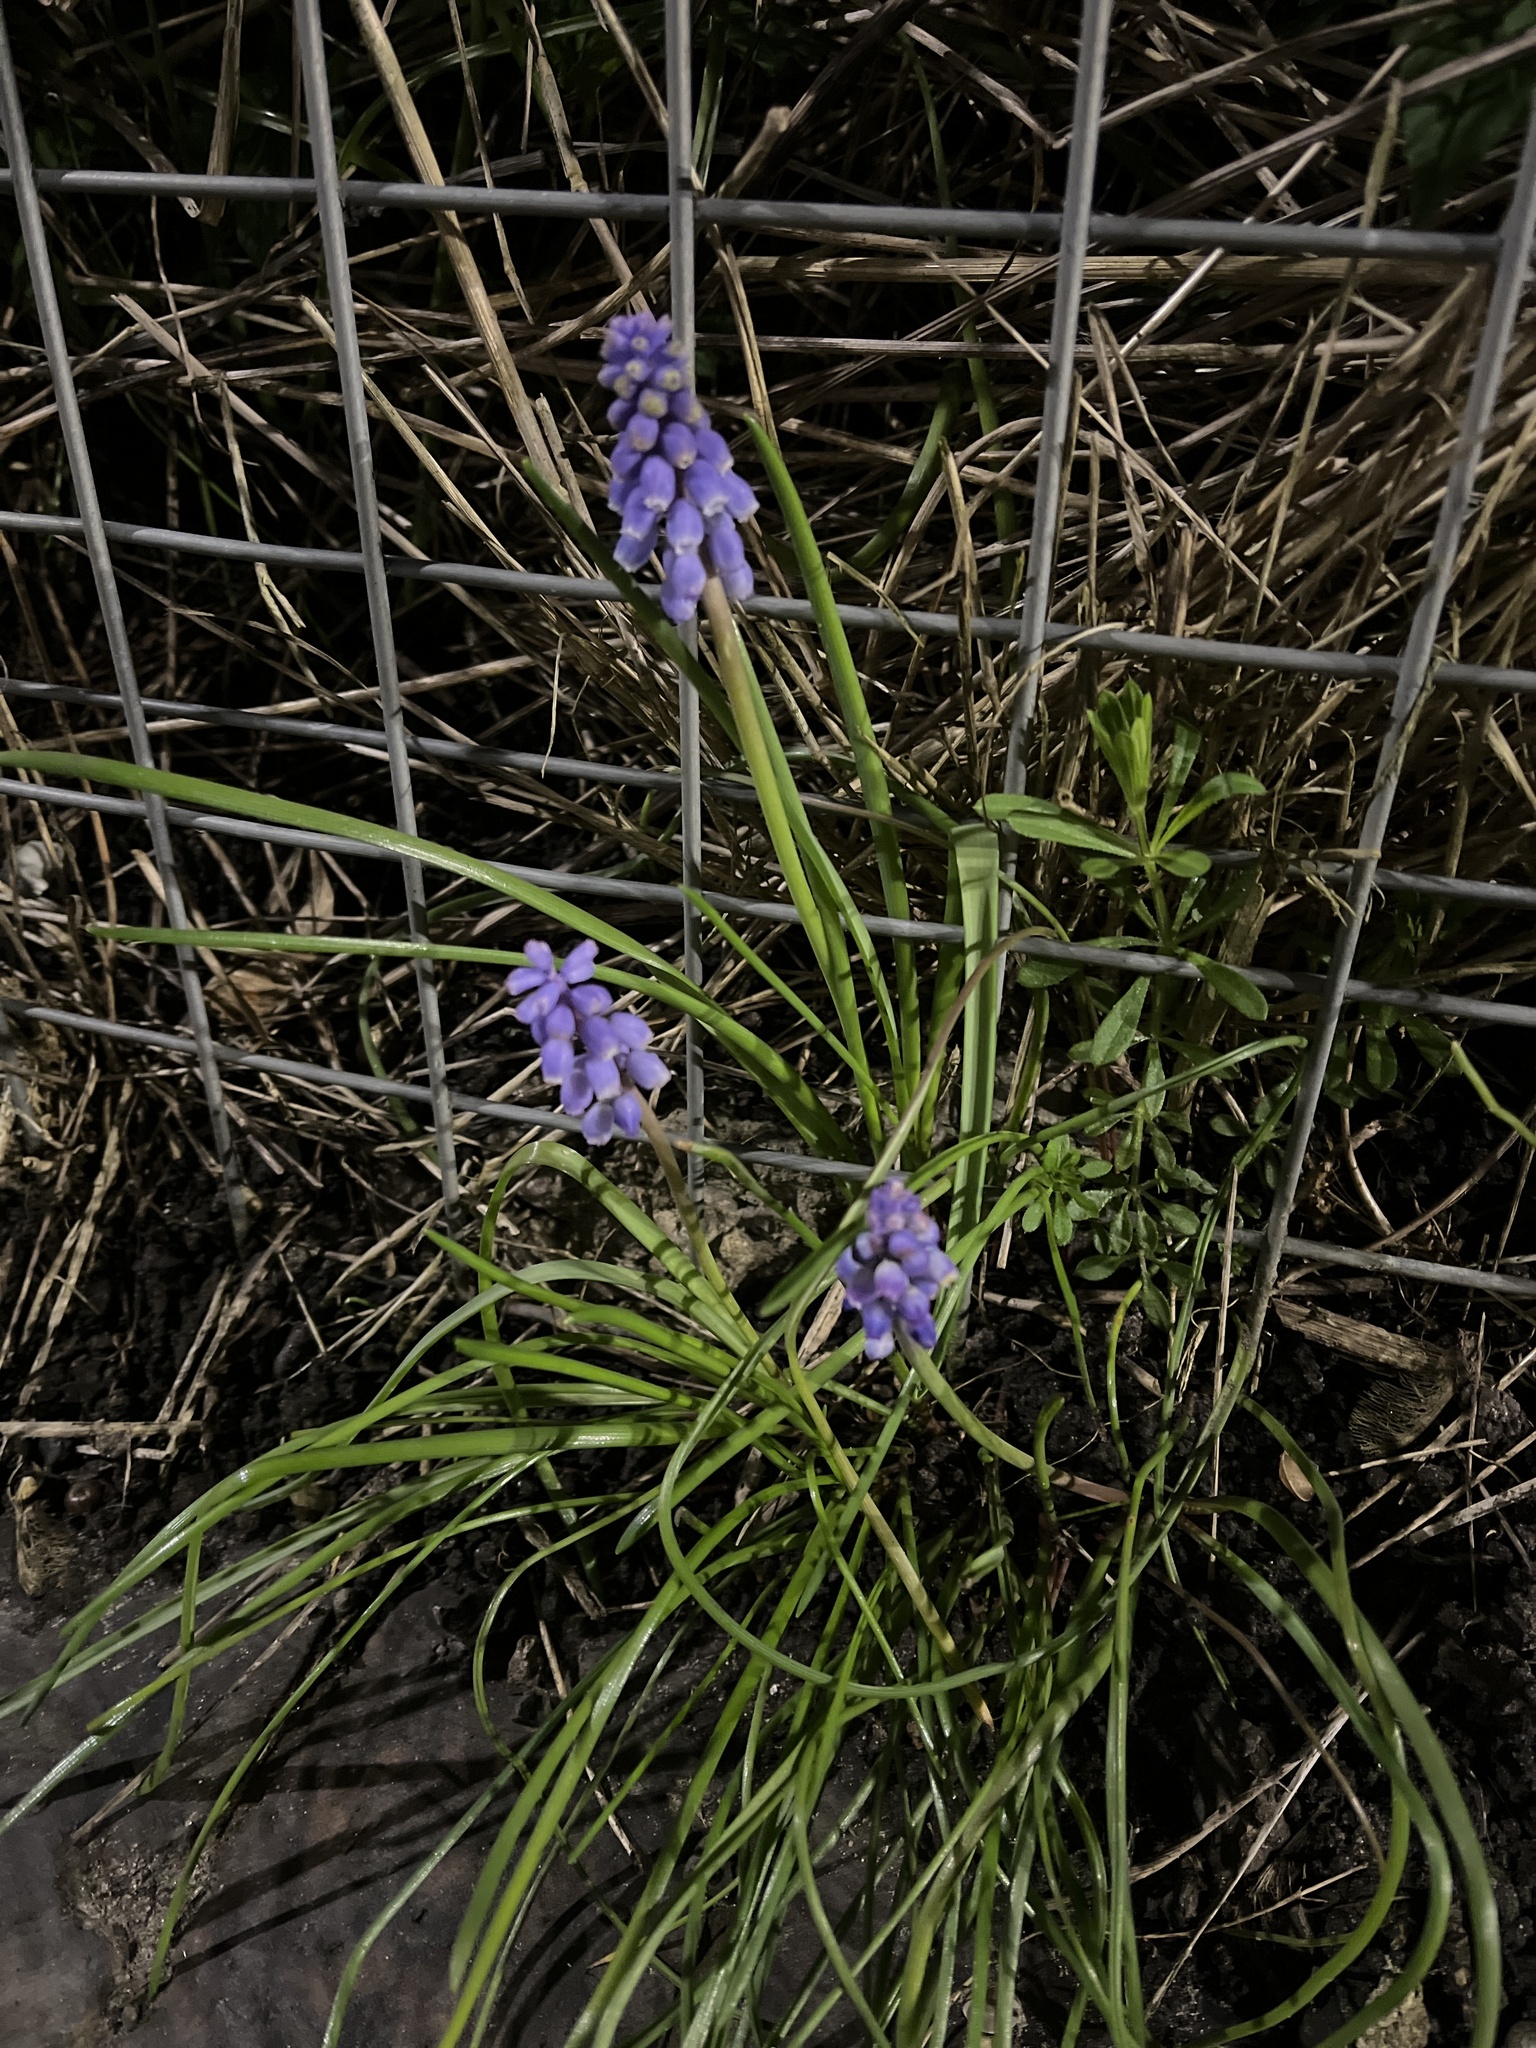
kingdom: Plantae
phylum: Tracheophyta
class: Liliopsida
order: Asparagales
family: Asparagaceae
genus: Muscari
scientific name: Muscari armeniacum
